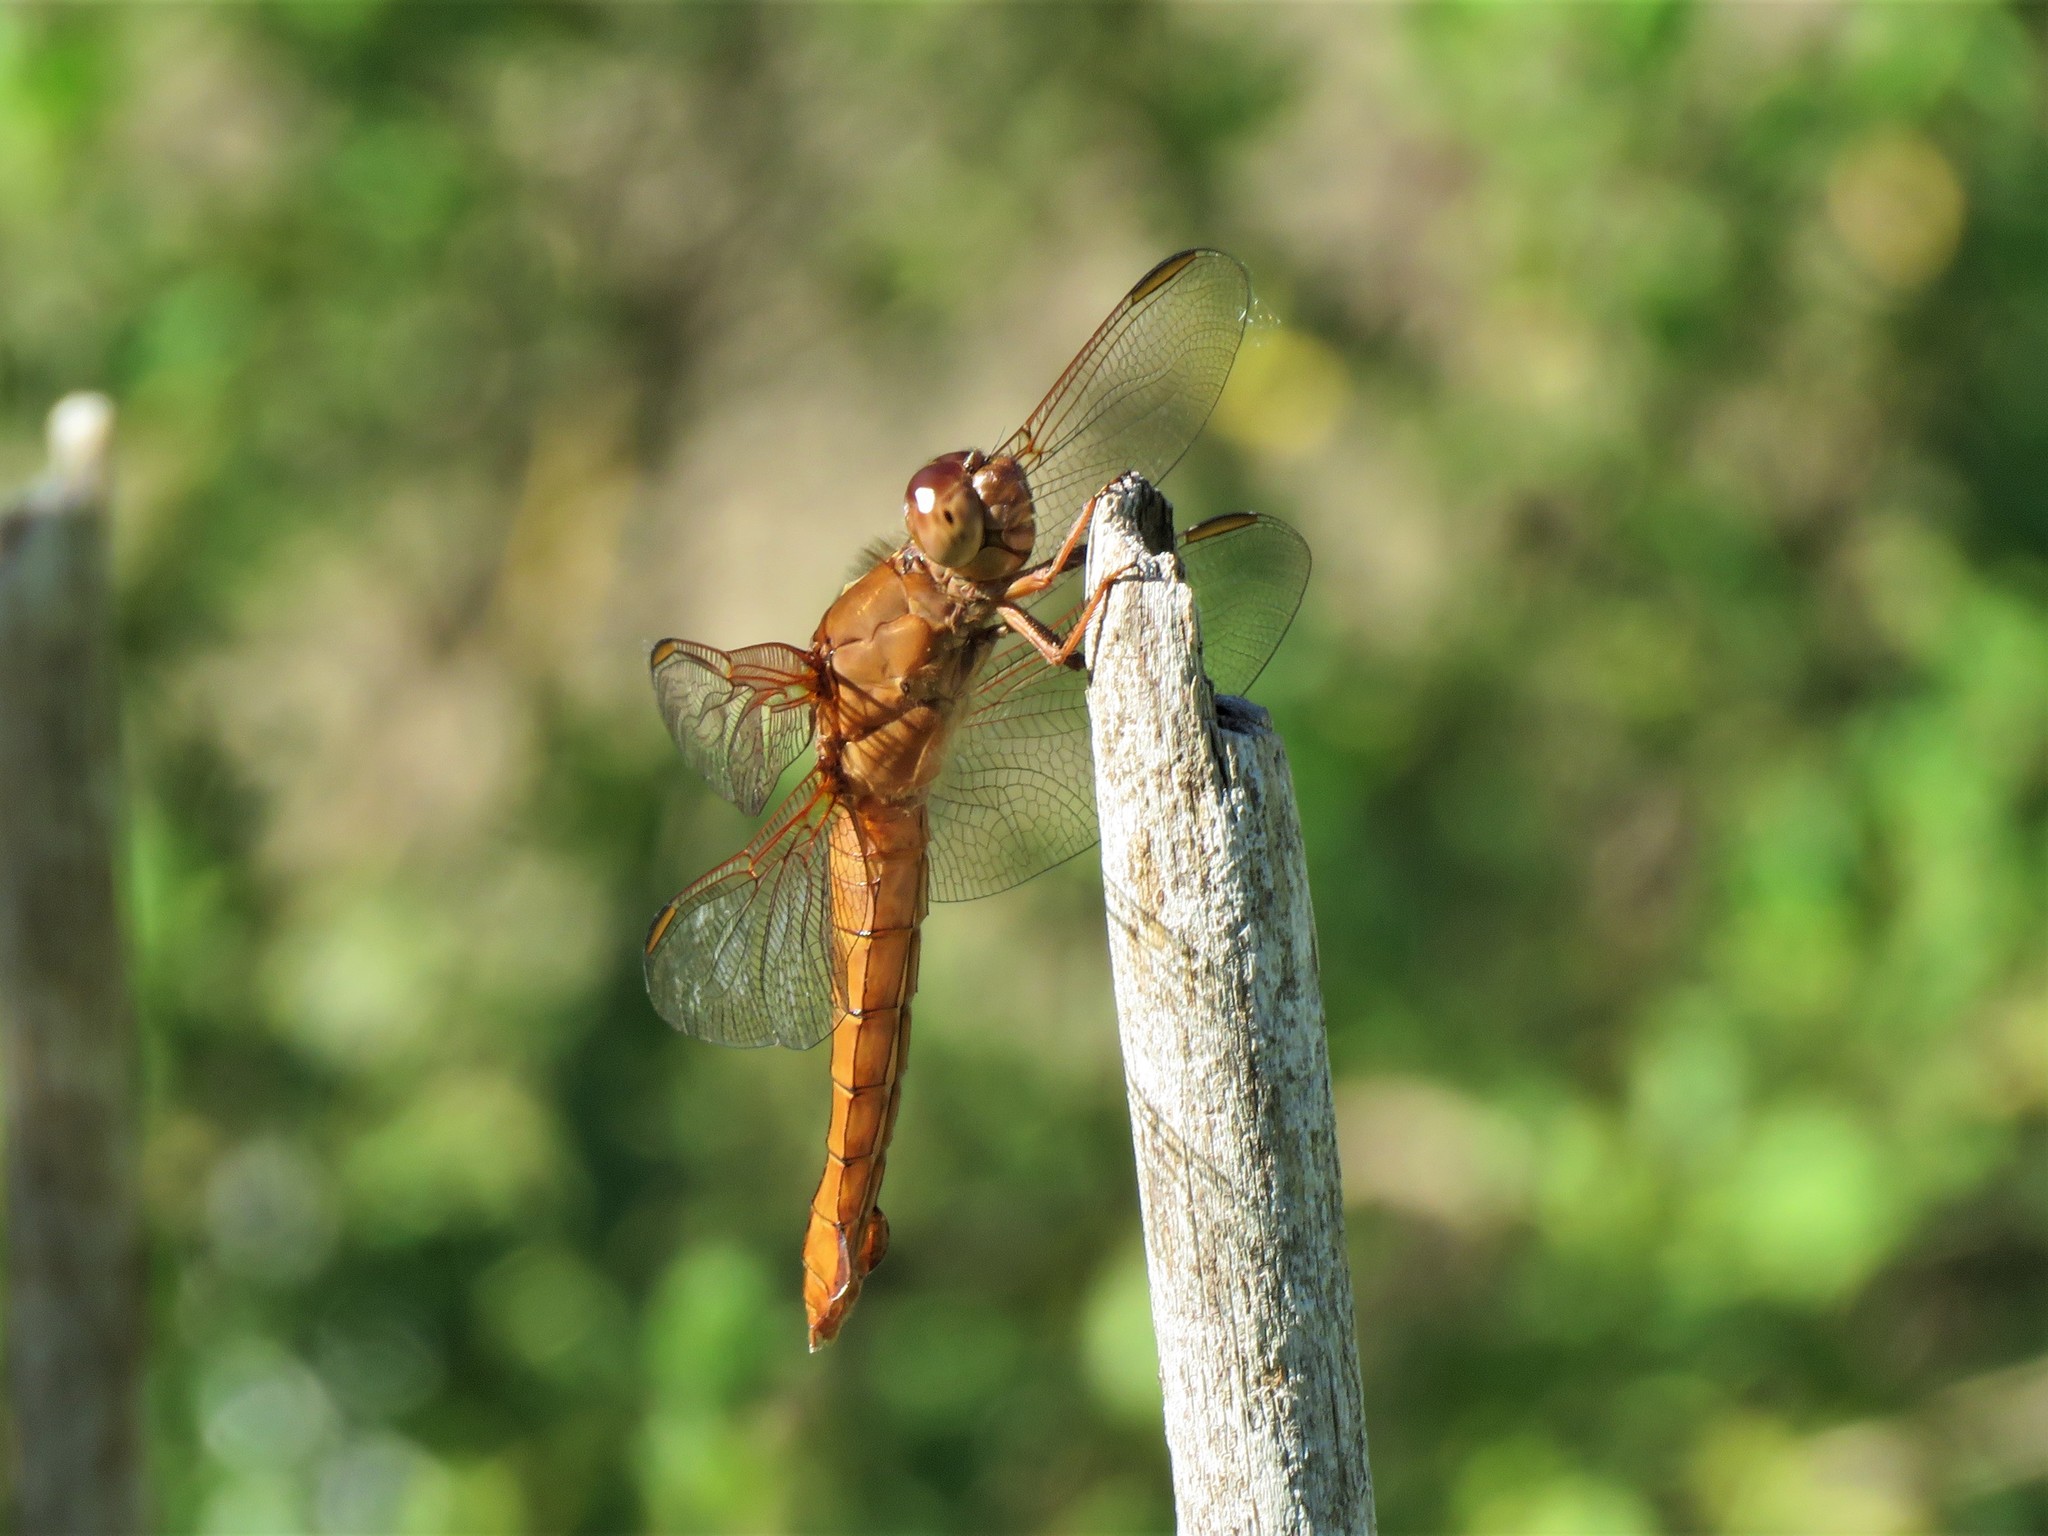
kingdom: Animalia
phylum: Arthropoda
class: Insecta
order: Odonata
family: Libellulidae
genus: Libellula
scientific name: Libellula croceipennis
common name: Neon skimmer
